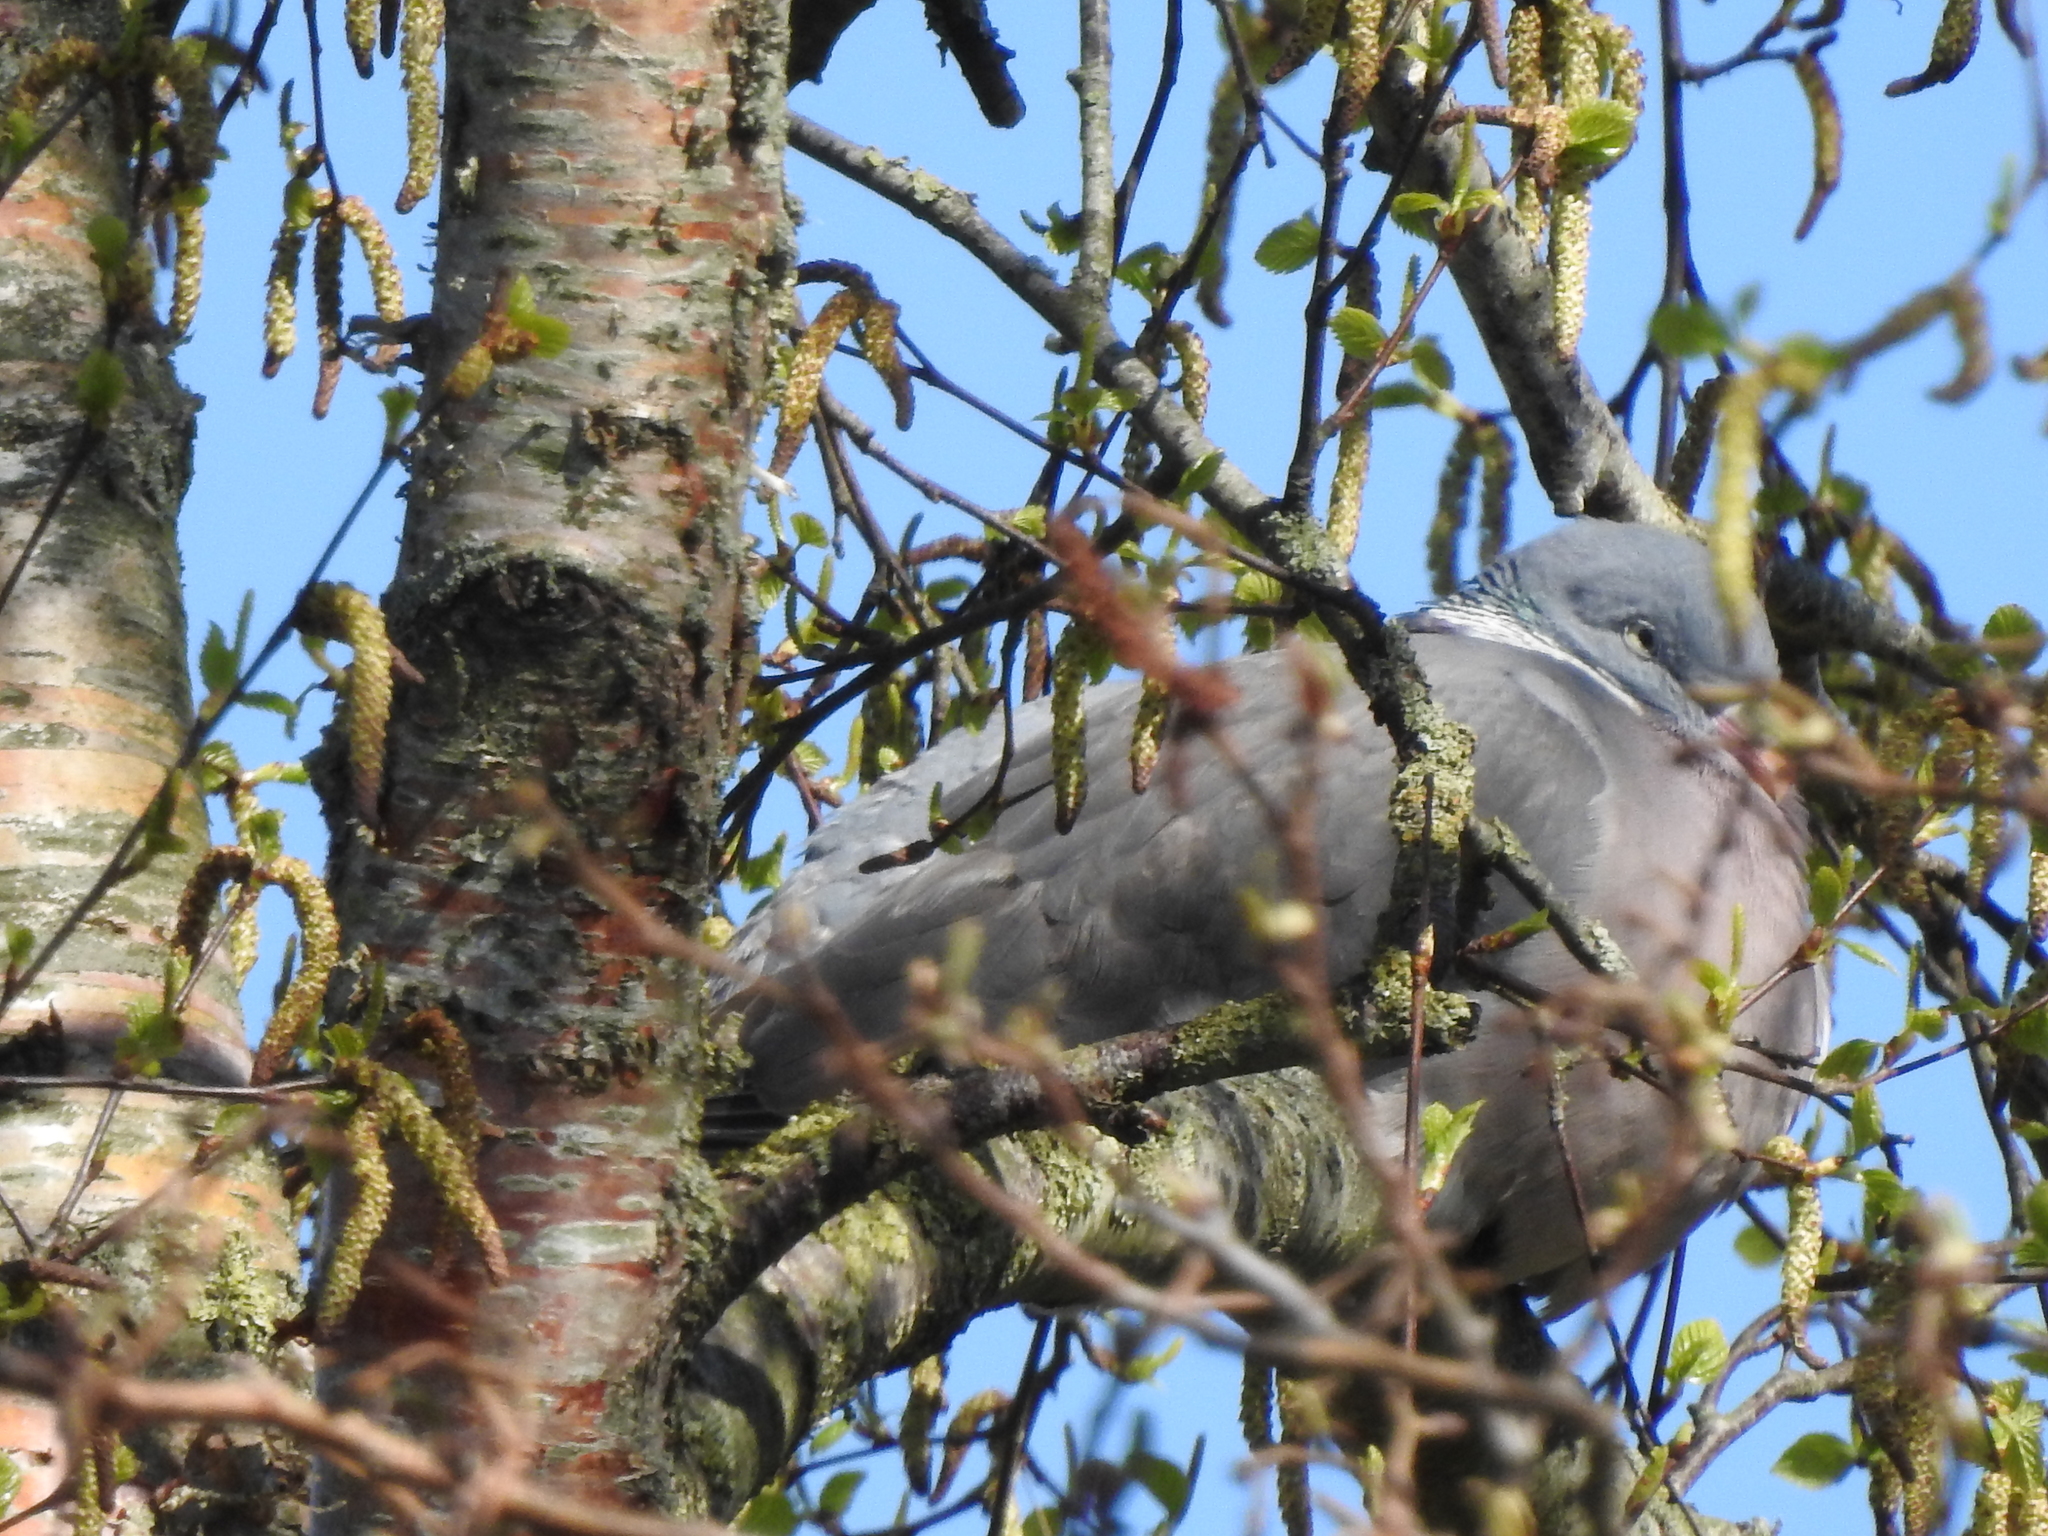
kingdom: Animalia
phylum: Chordata
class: Aves
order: Columbiformes
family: Columbidae
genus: Columba
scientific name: Columba palumbus
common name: Common wood pigeon
